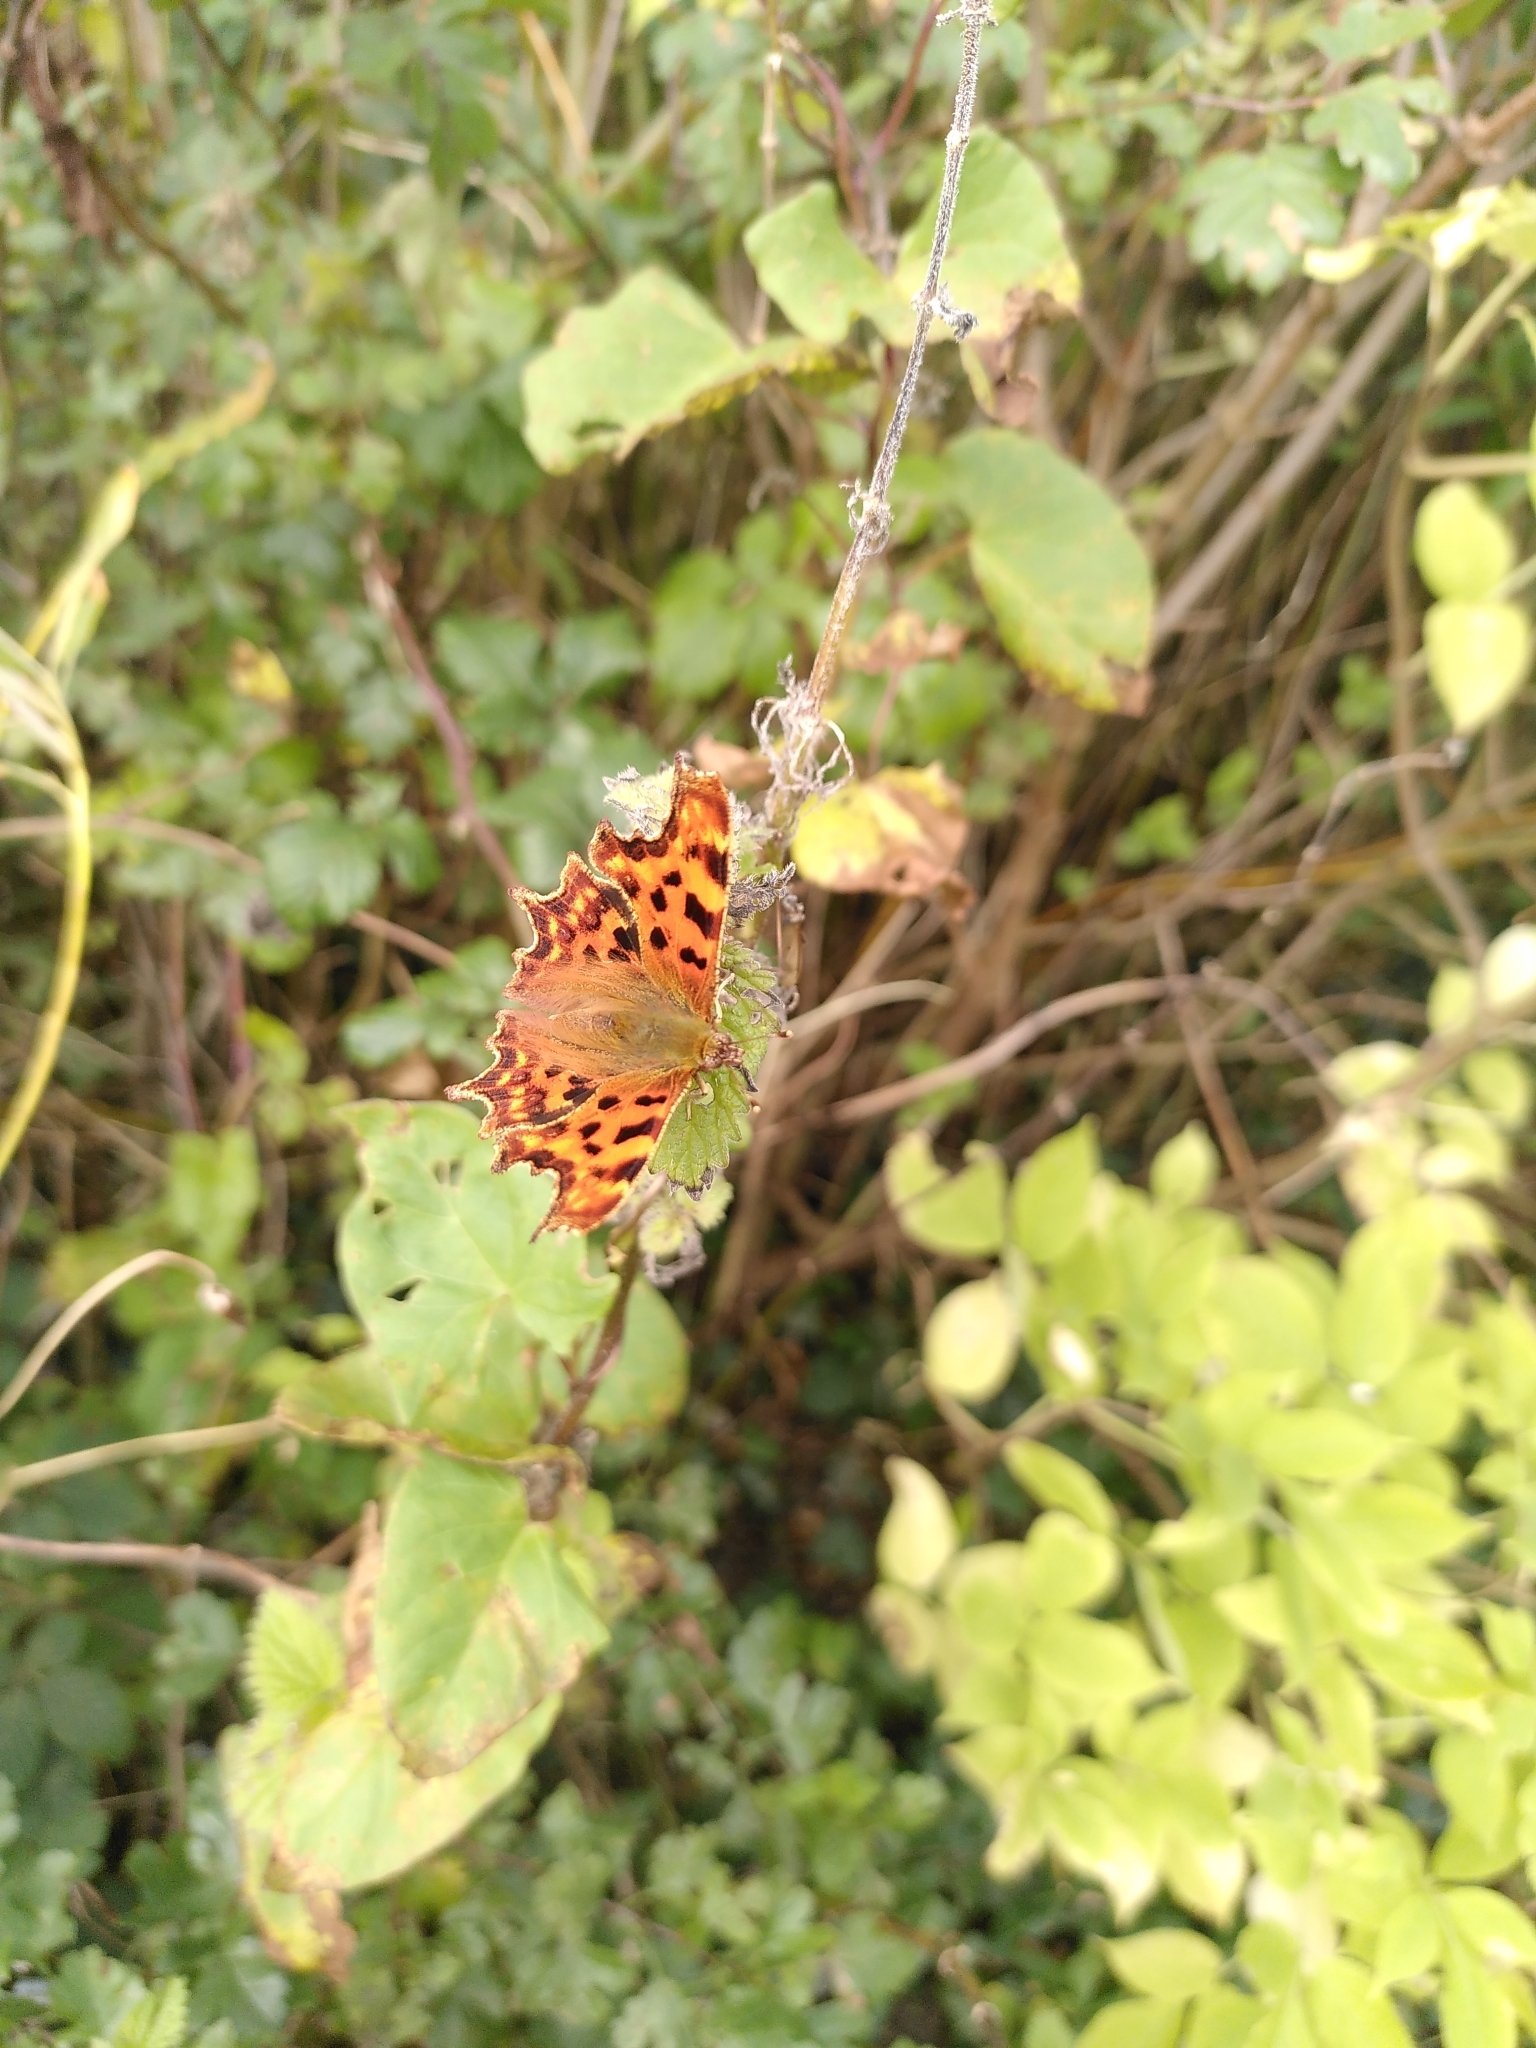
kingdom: Animalia
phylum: Arthropoda
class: Insecta
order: Lepidoptera
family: Nymphalidae
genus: Polygonia
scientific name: Polygonia c-album
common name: Comma
